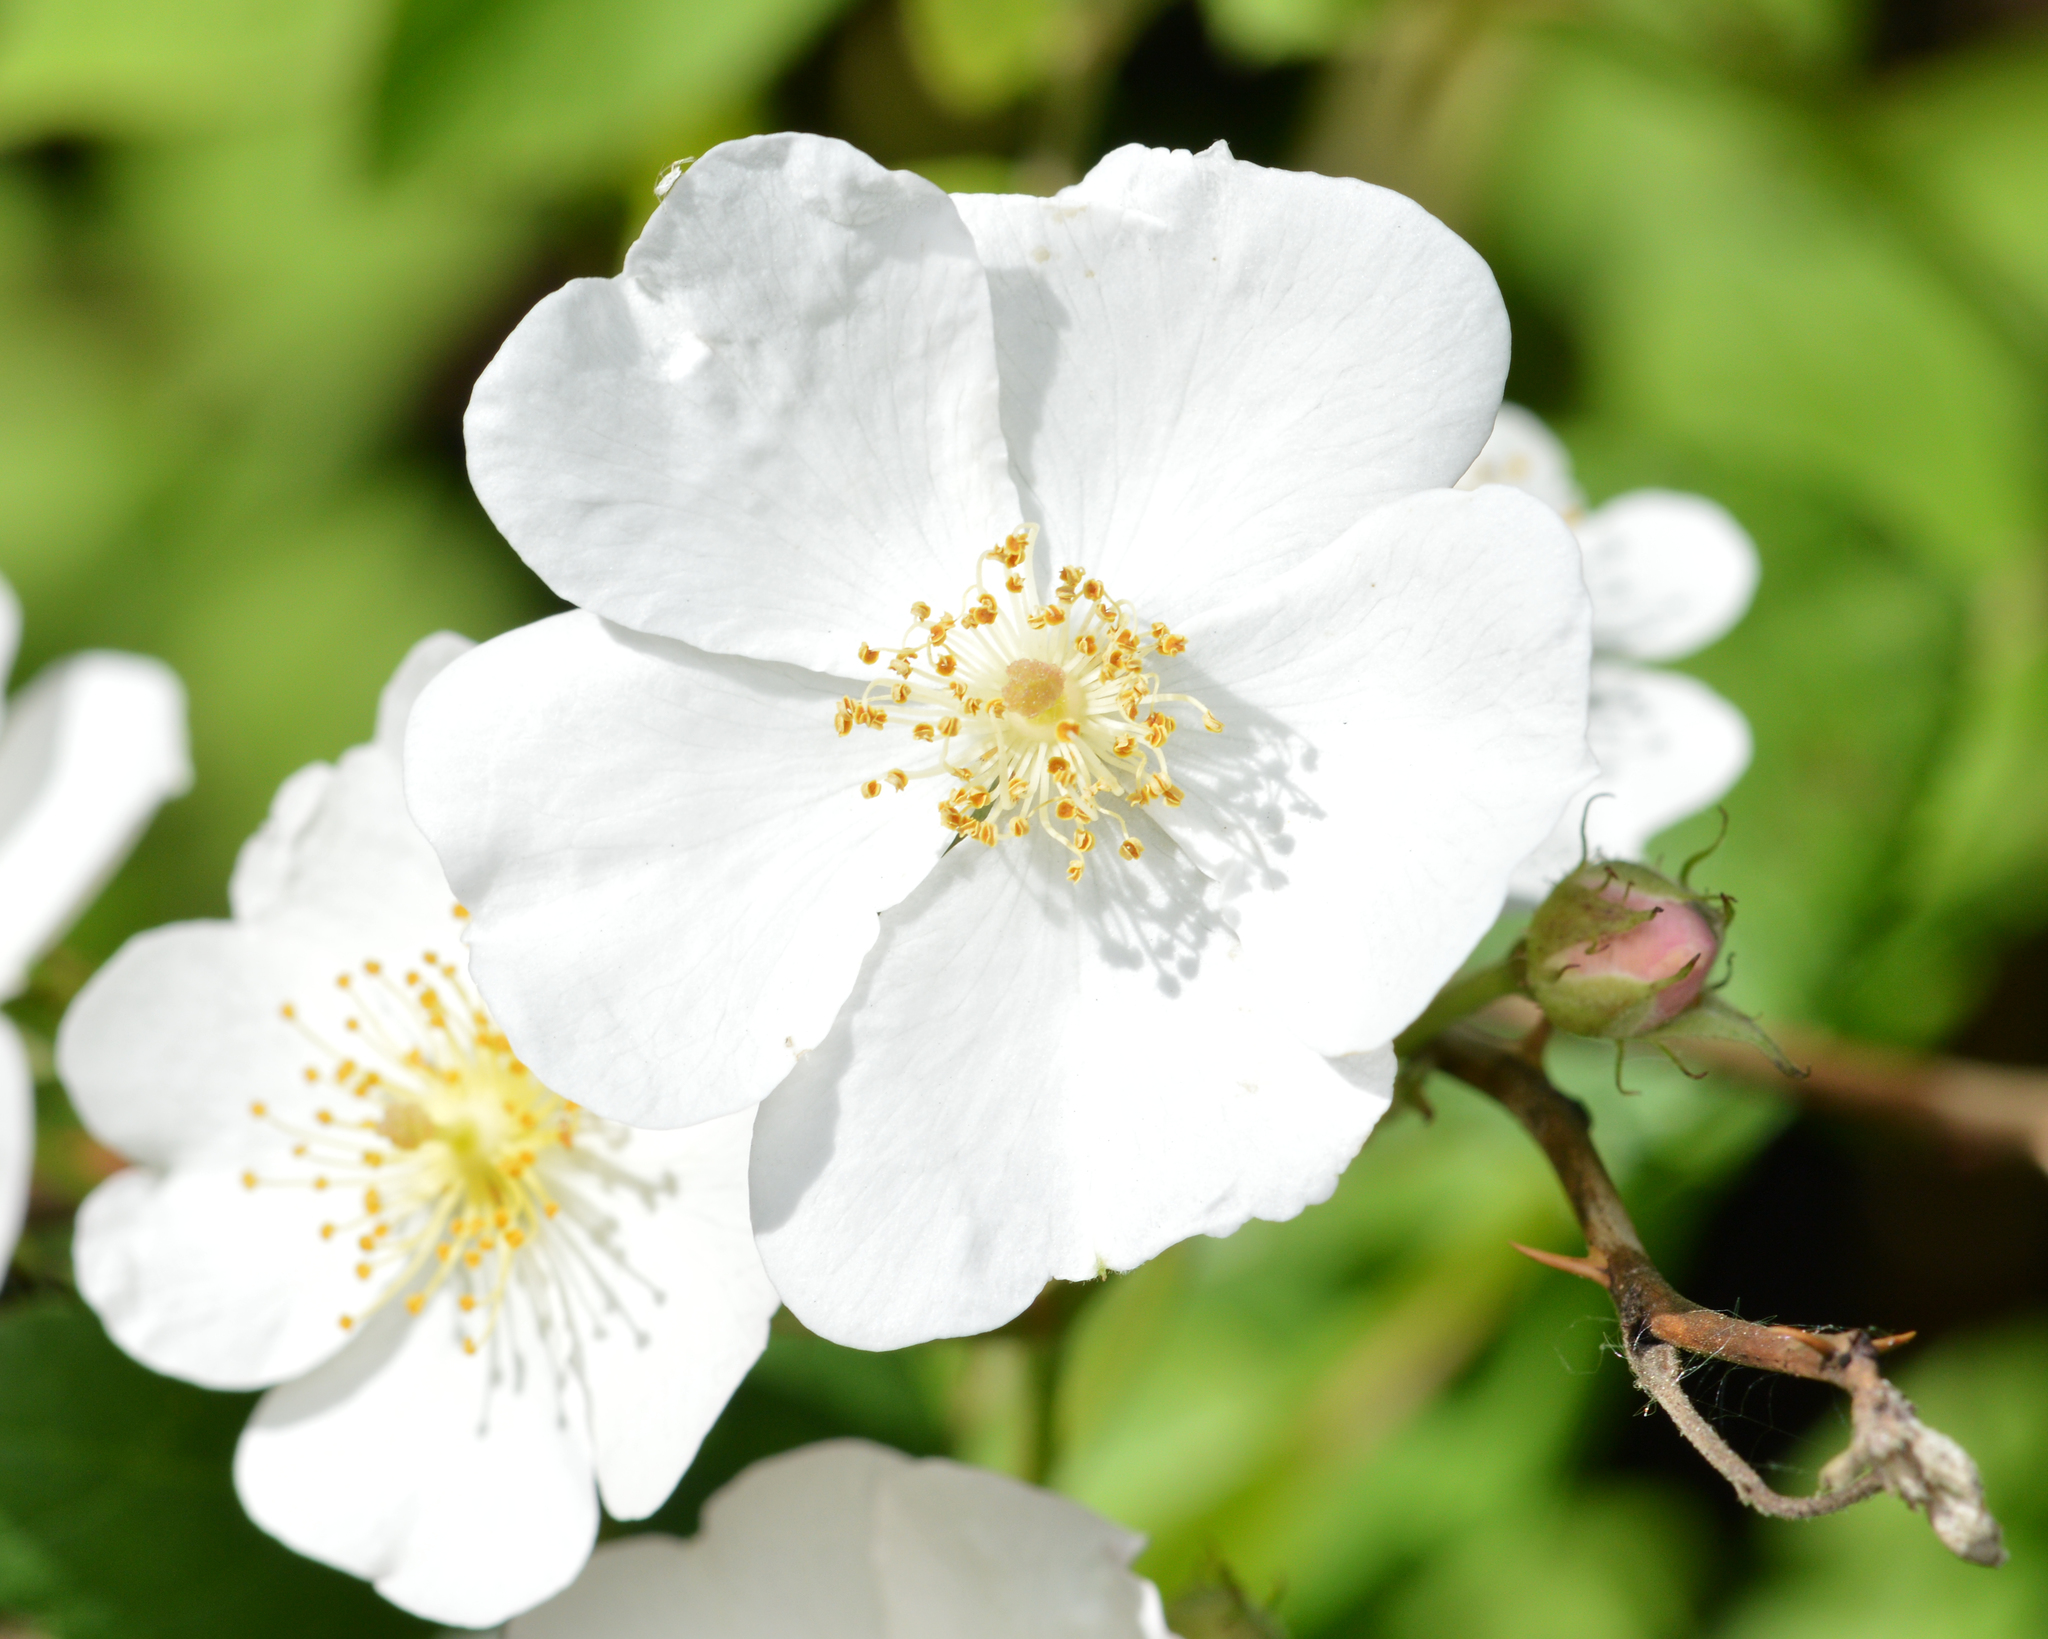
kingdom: Plantae
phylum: Tracheophyta
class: Magnoliopsida
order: Rosales
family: Rosaceae
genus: Rosa
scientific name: Rosa multiflora
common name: Multiflora rose
